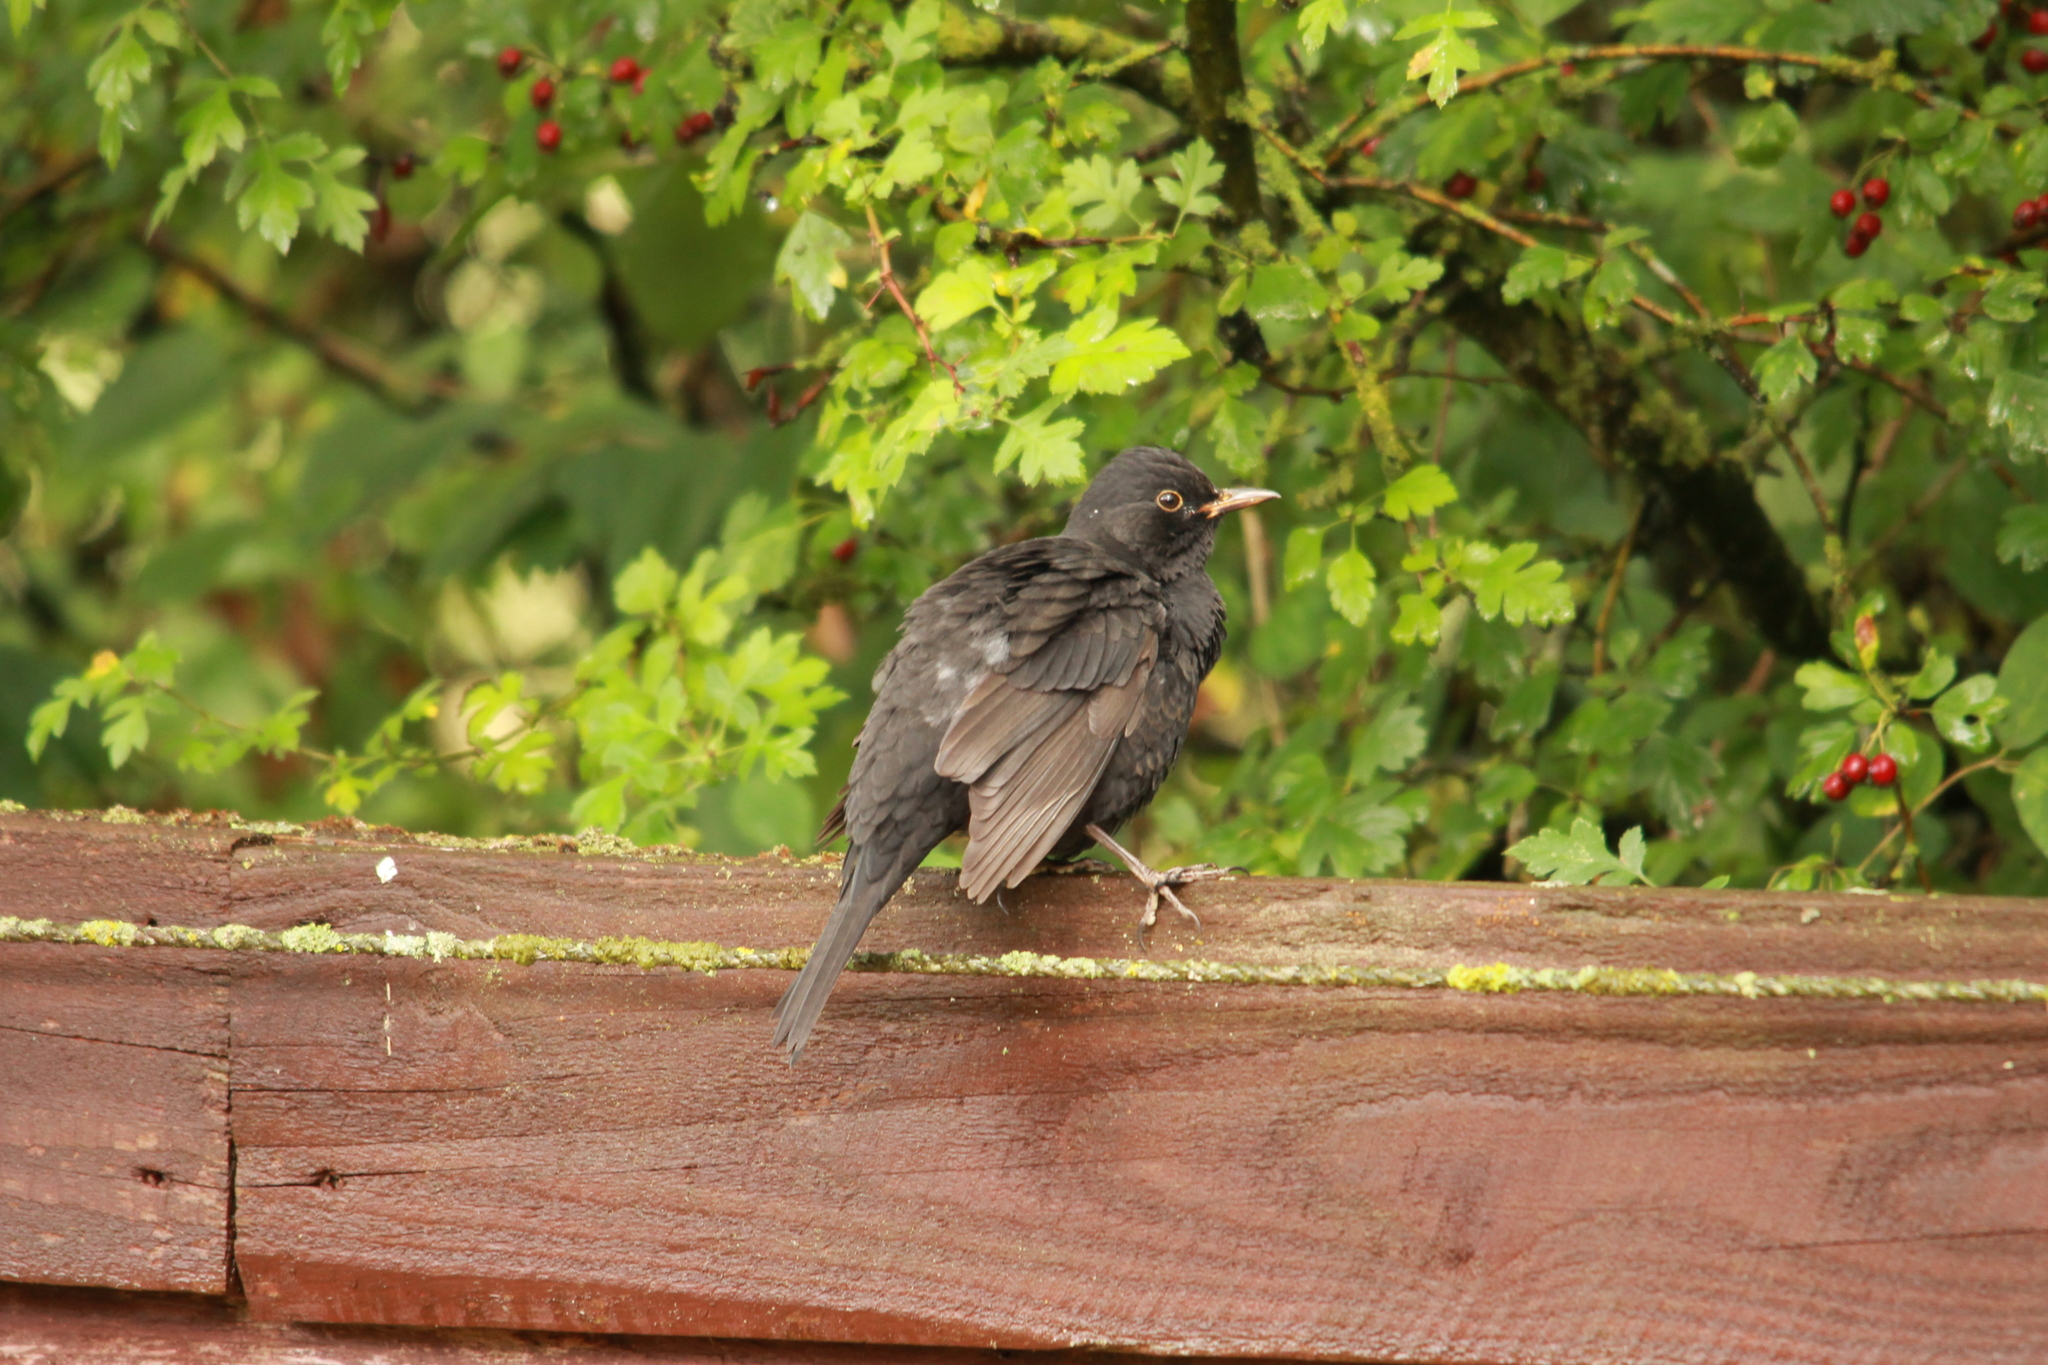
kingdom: Animalia
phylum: Chordata
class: Aves
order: Passeriformes
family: Turdidae
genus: Turdus
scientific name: Turdus merula
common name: Common blackbird
